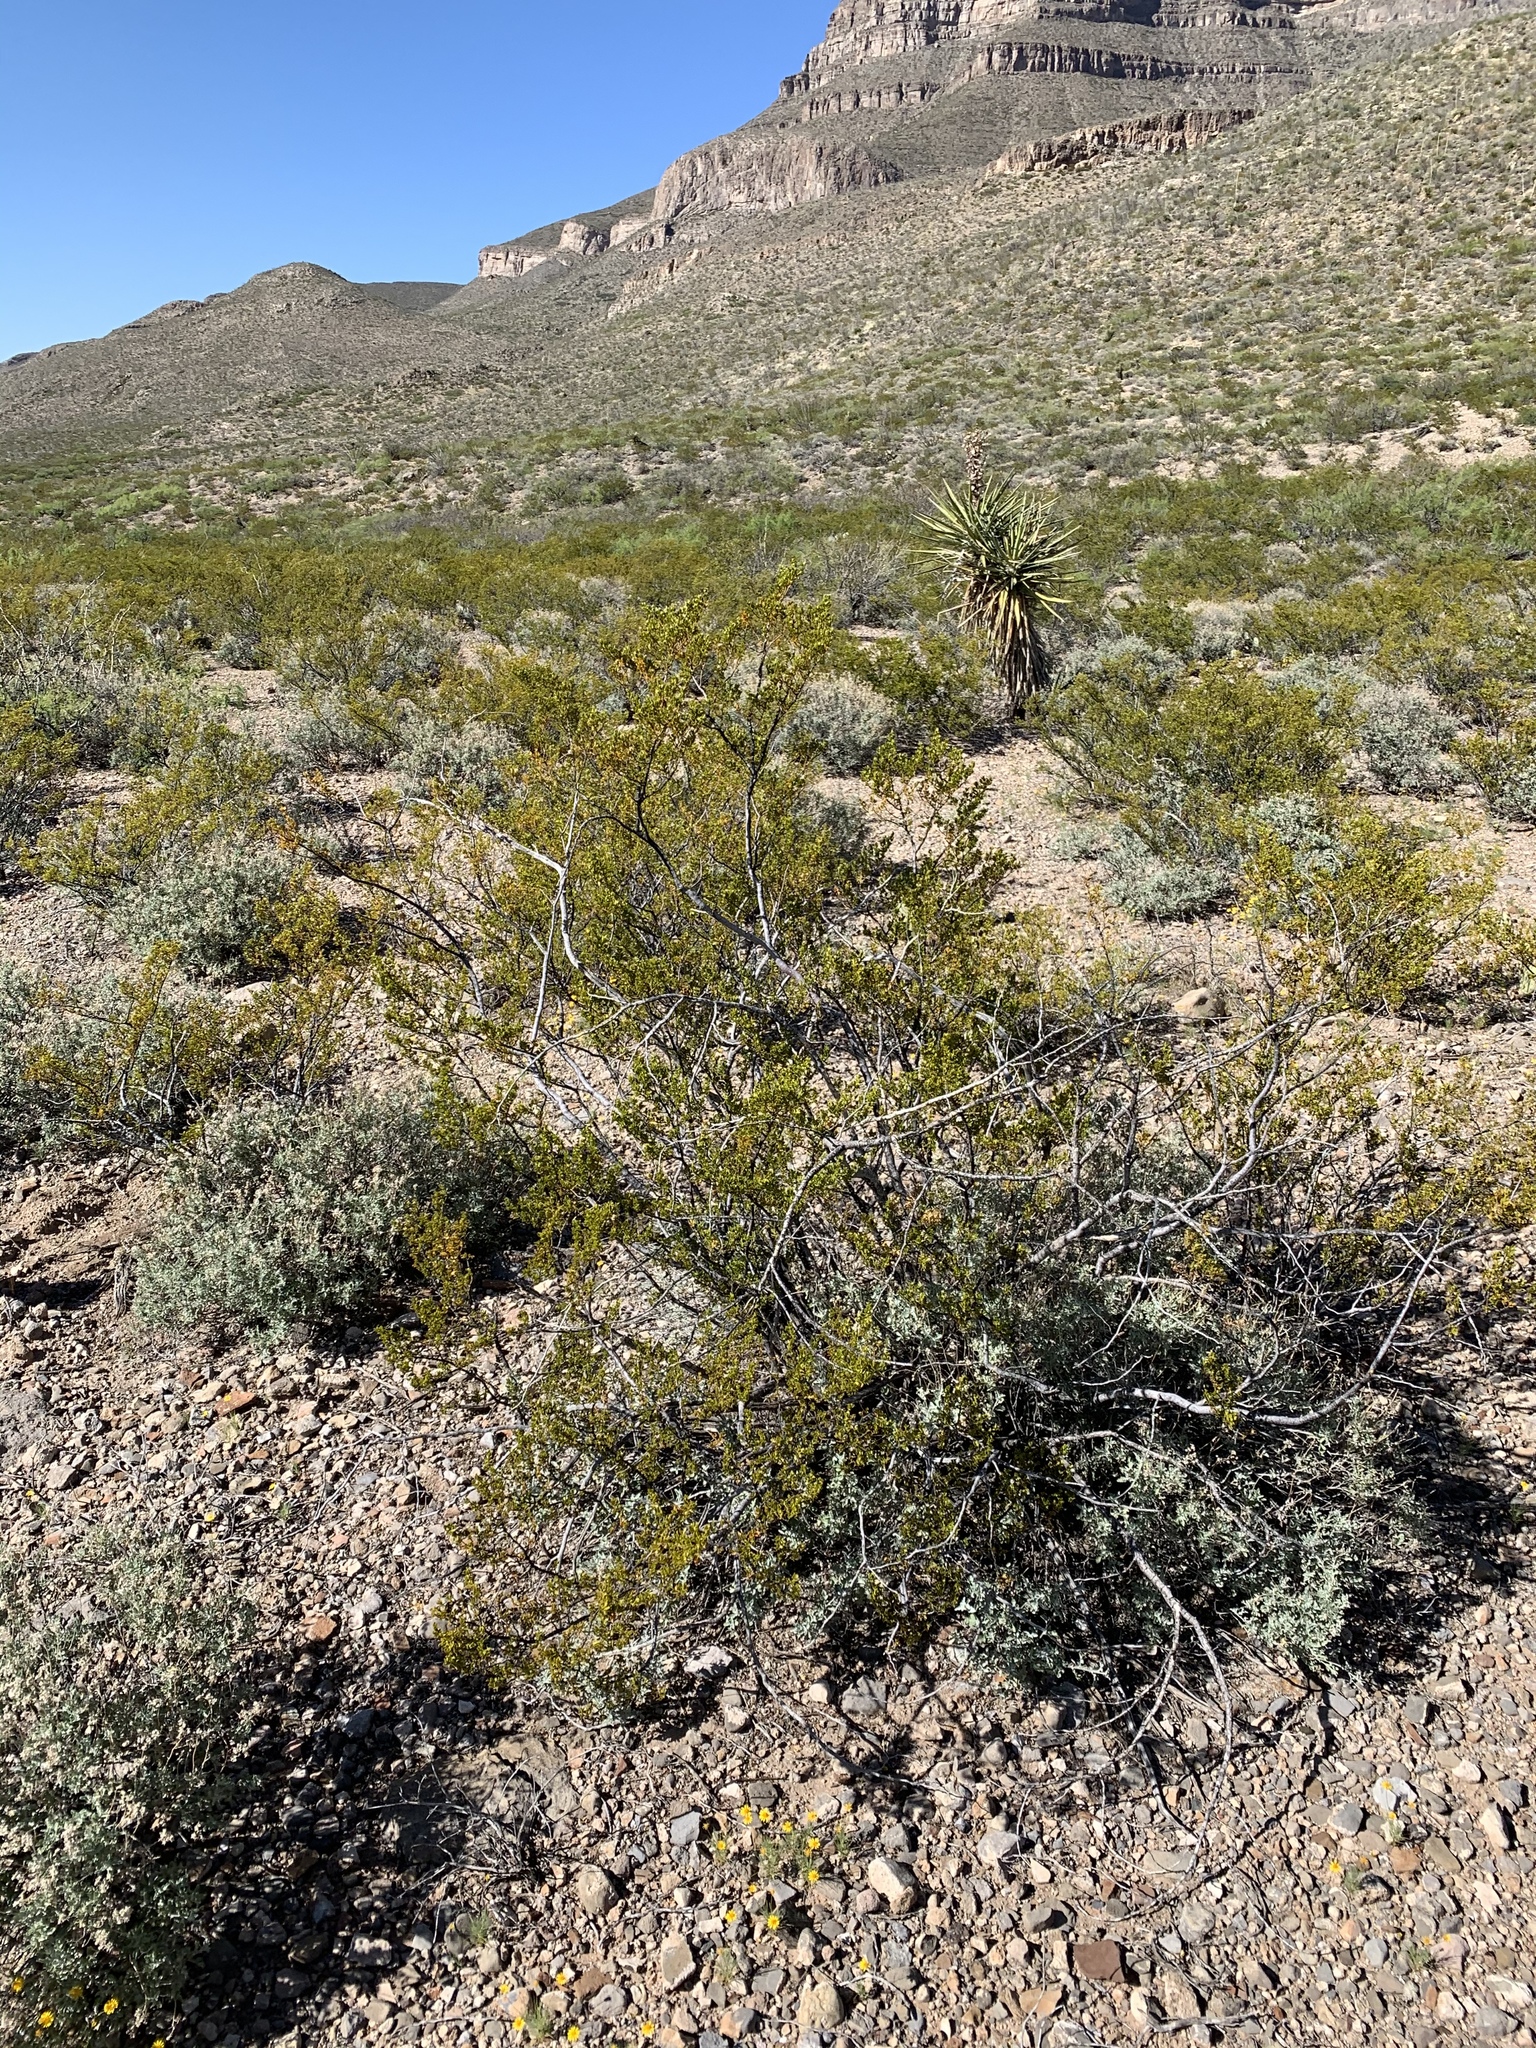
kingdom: Plantae
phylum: Tracheophyta
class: Magnoliopsida
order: Zygophyllales
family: Zygophyllaceae
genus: Larrea
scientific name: Larrea tridentata
